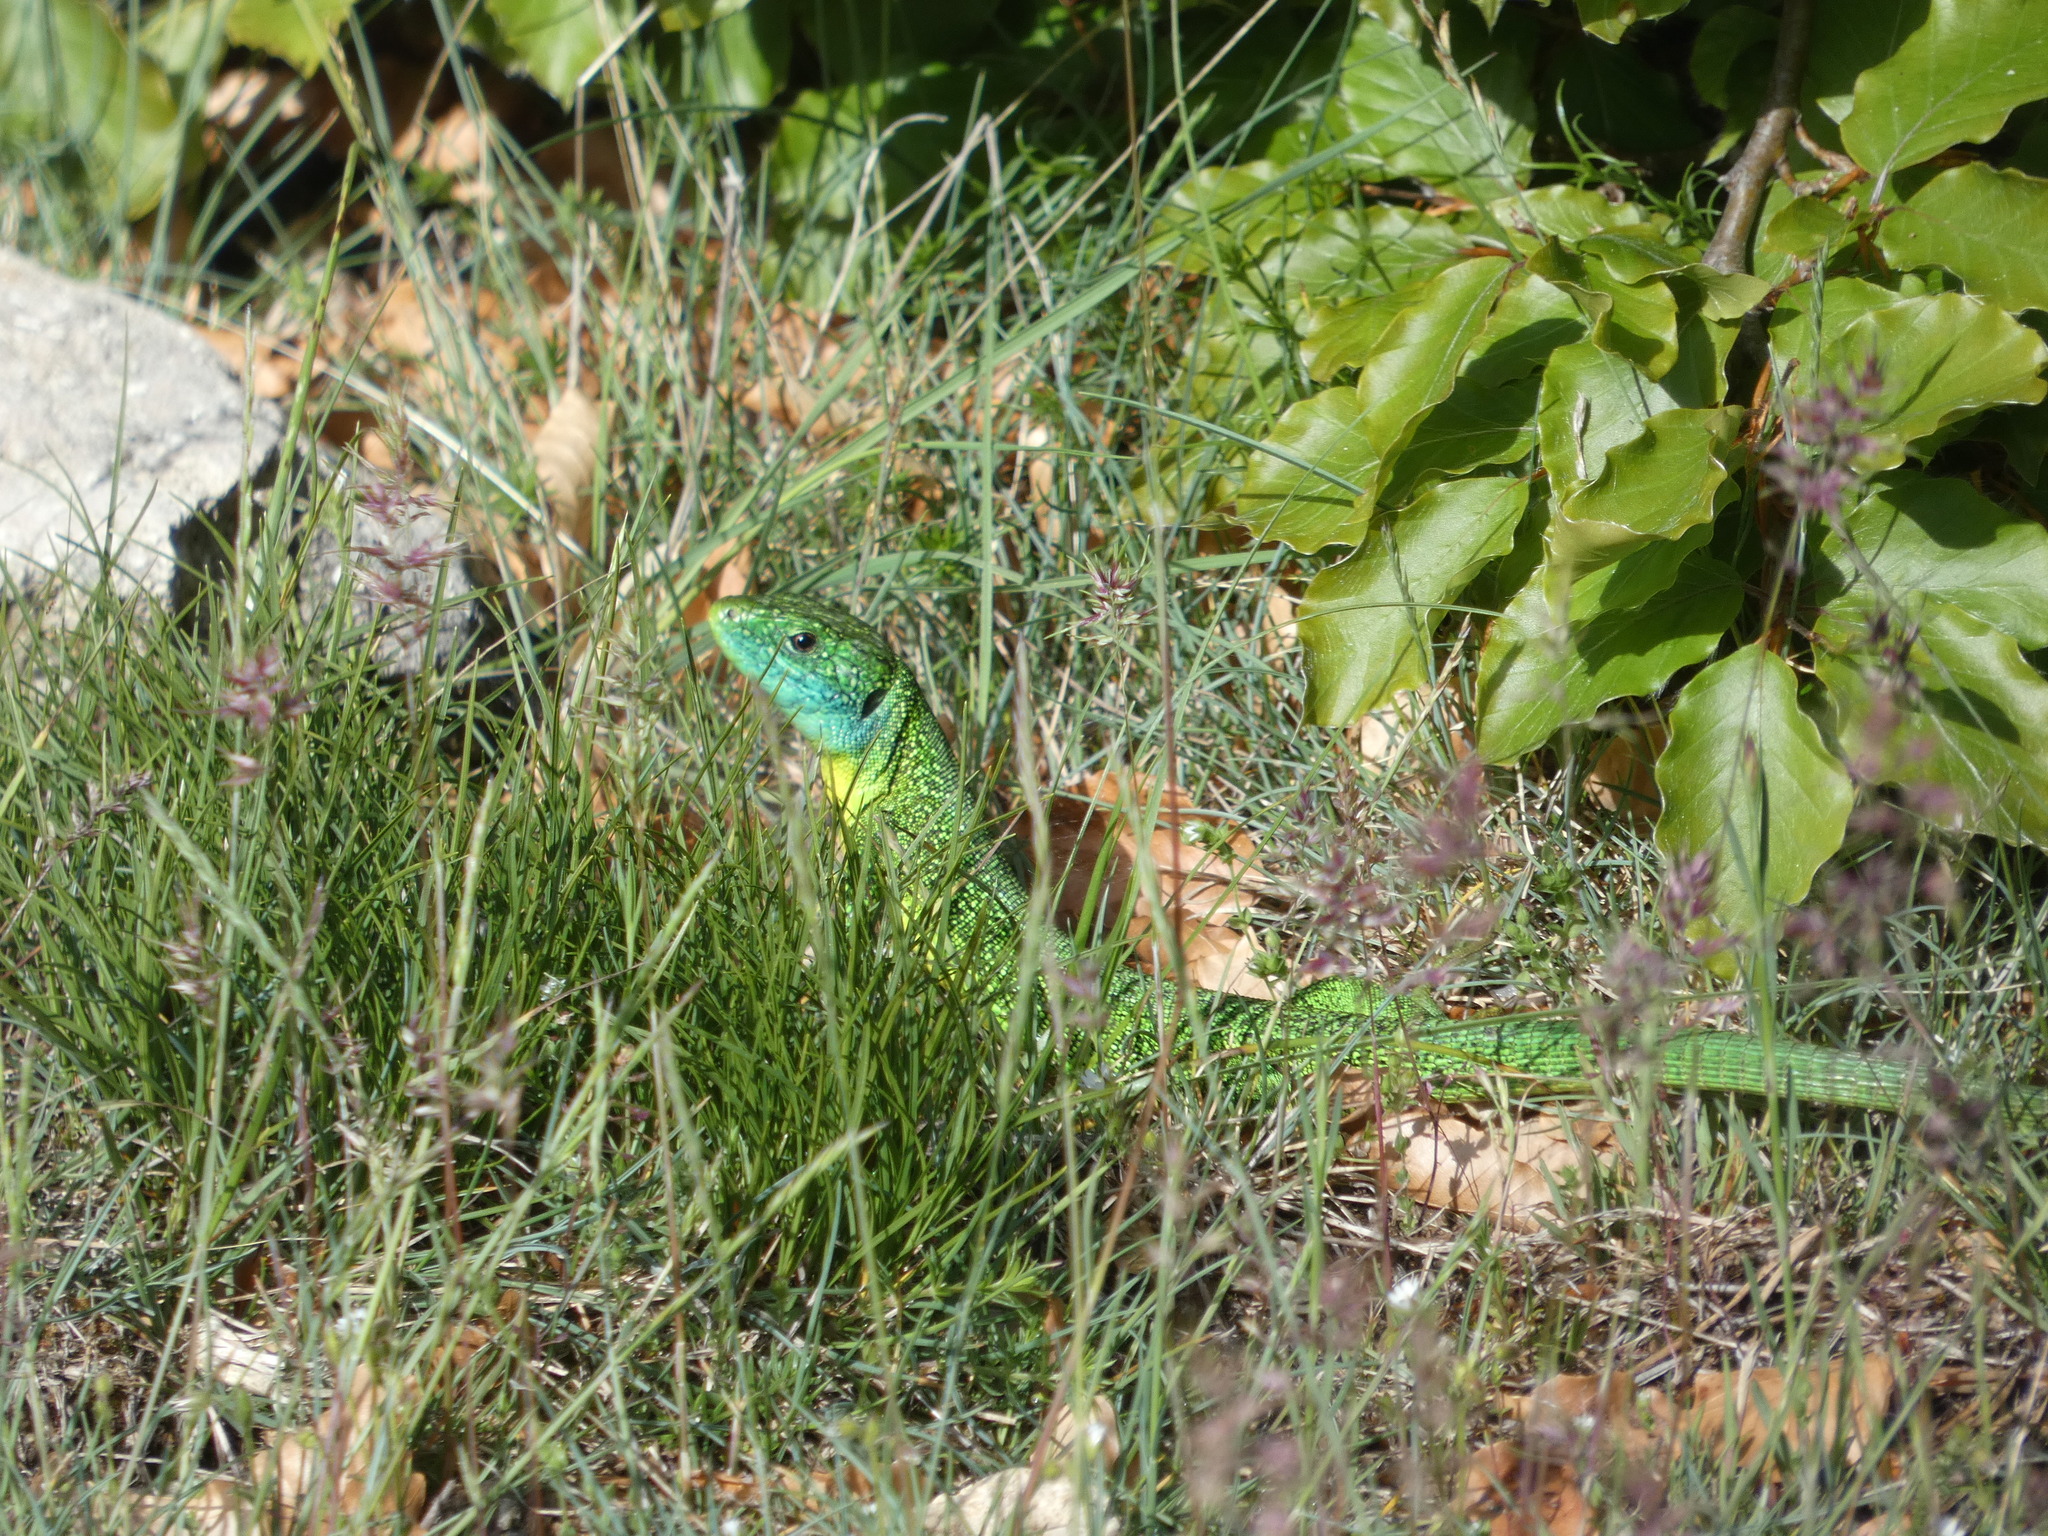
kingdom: Animalia
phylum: Chordata
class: Squamata
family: Lacertidae
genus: Lacerta
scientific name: Lacerta bilineata
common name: Western green lizard
